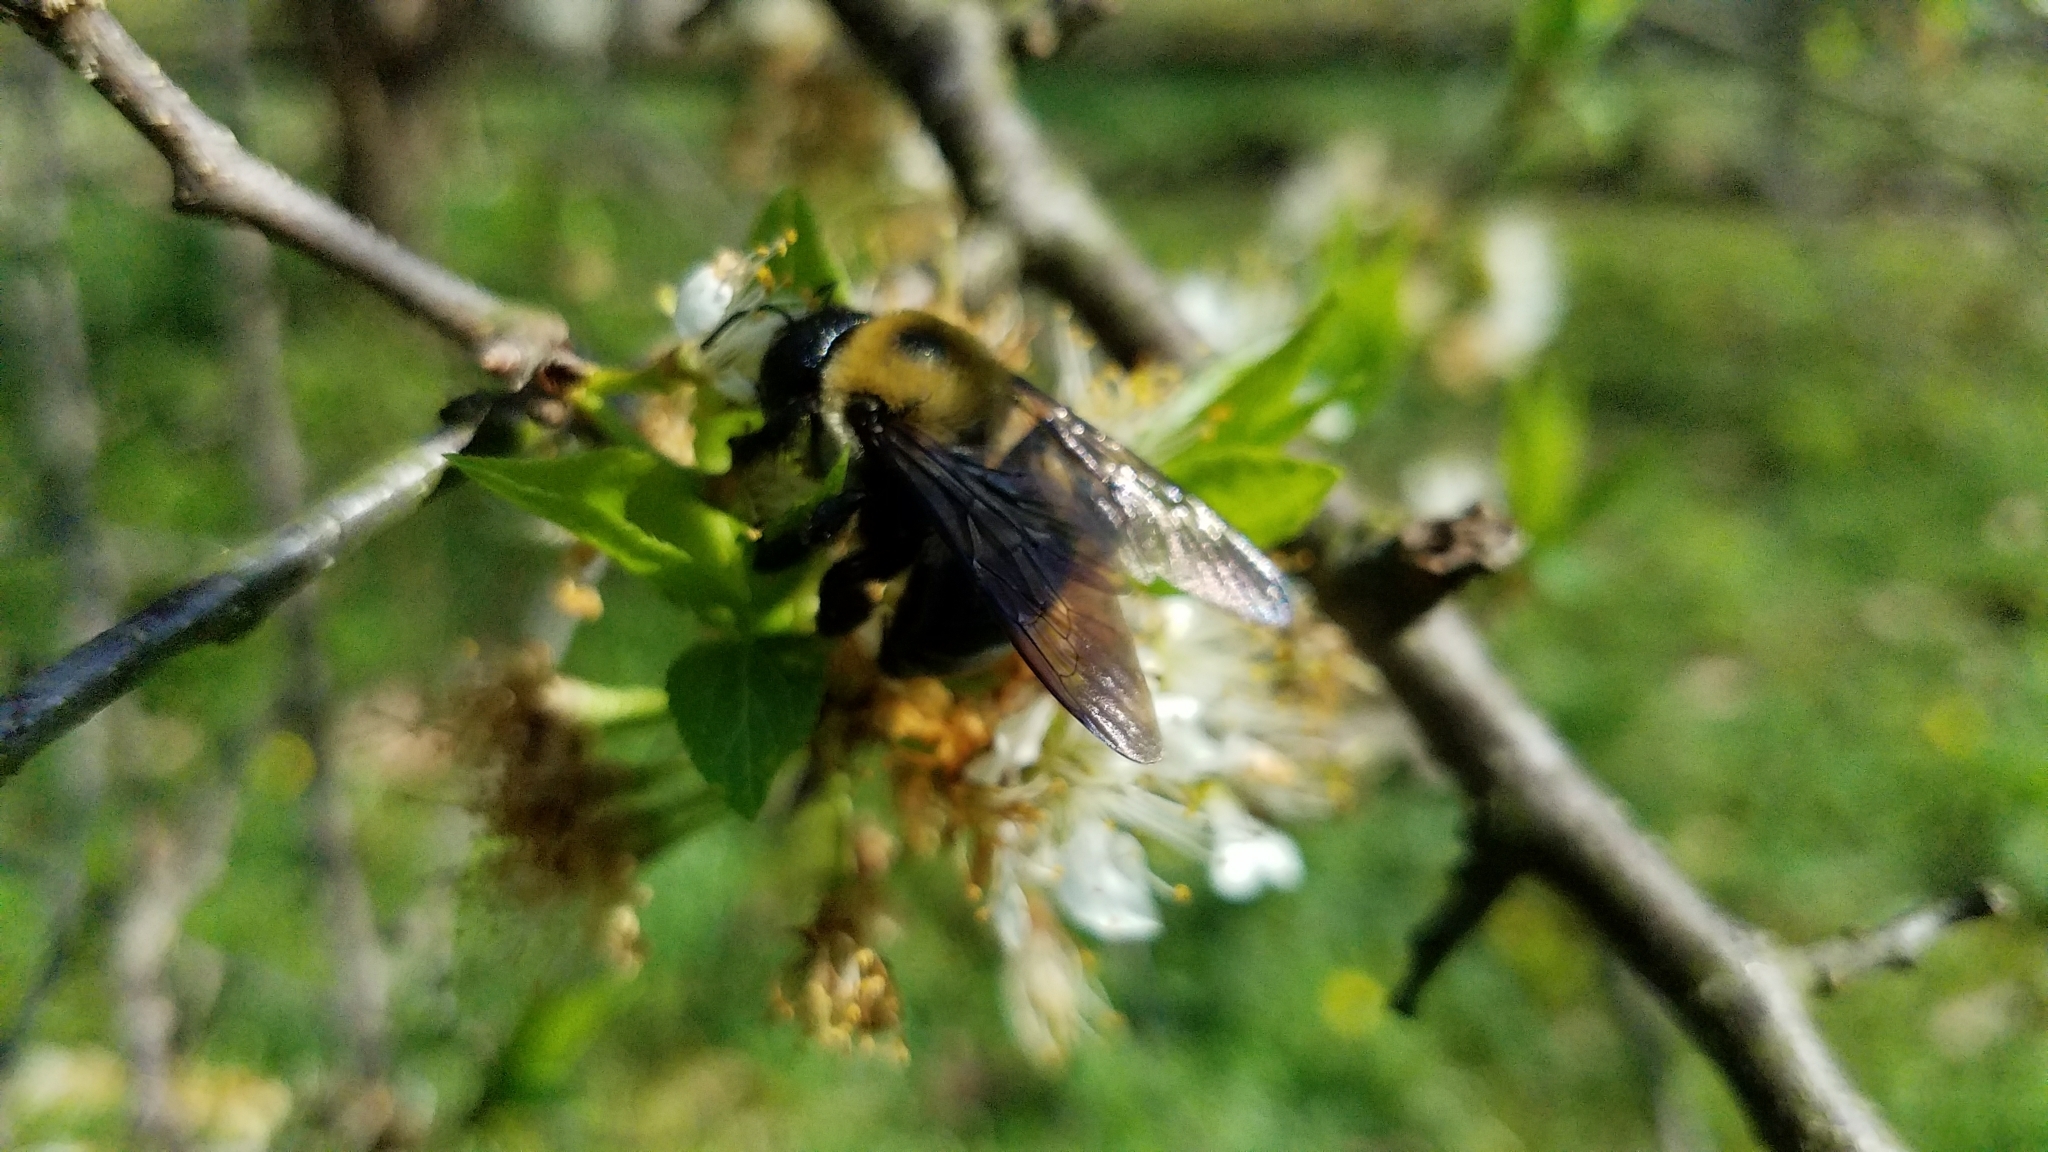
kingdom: Animalia
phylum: Arthropoda
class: Insecta
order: Hymenoptera
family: Apidae
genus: Xylocopa
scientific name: Xylocopa virginica
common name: Carpenter bee
